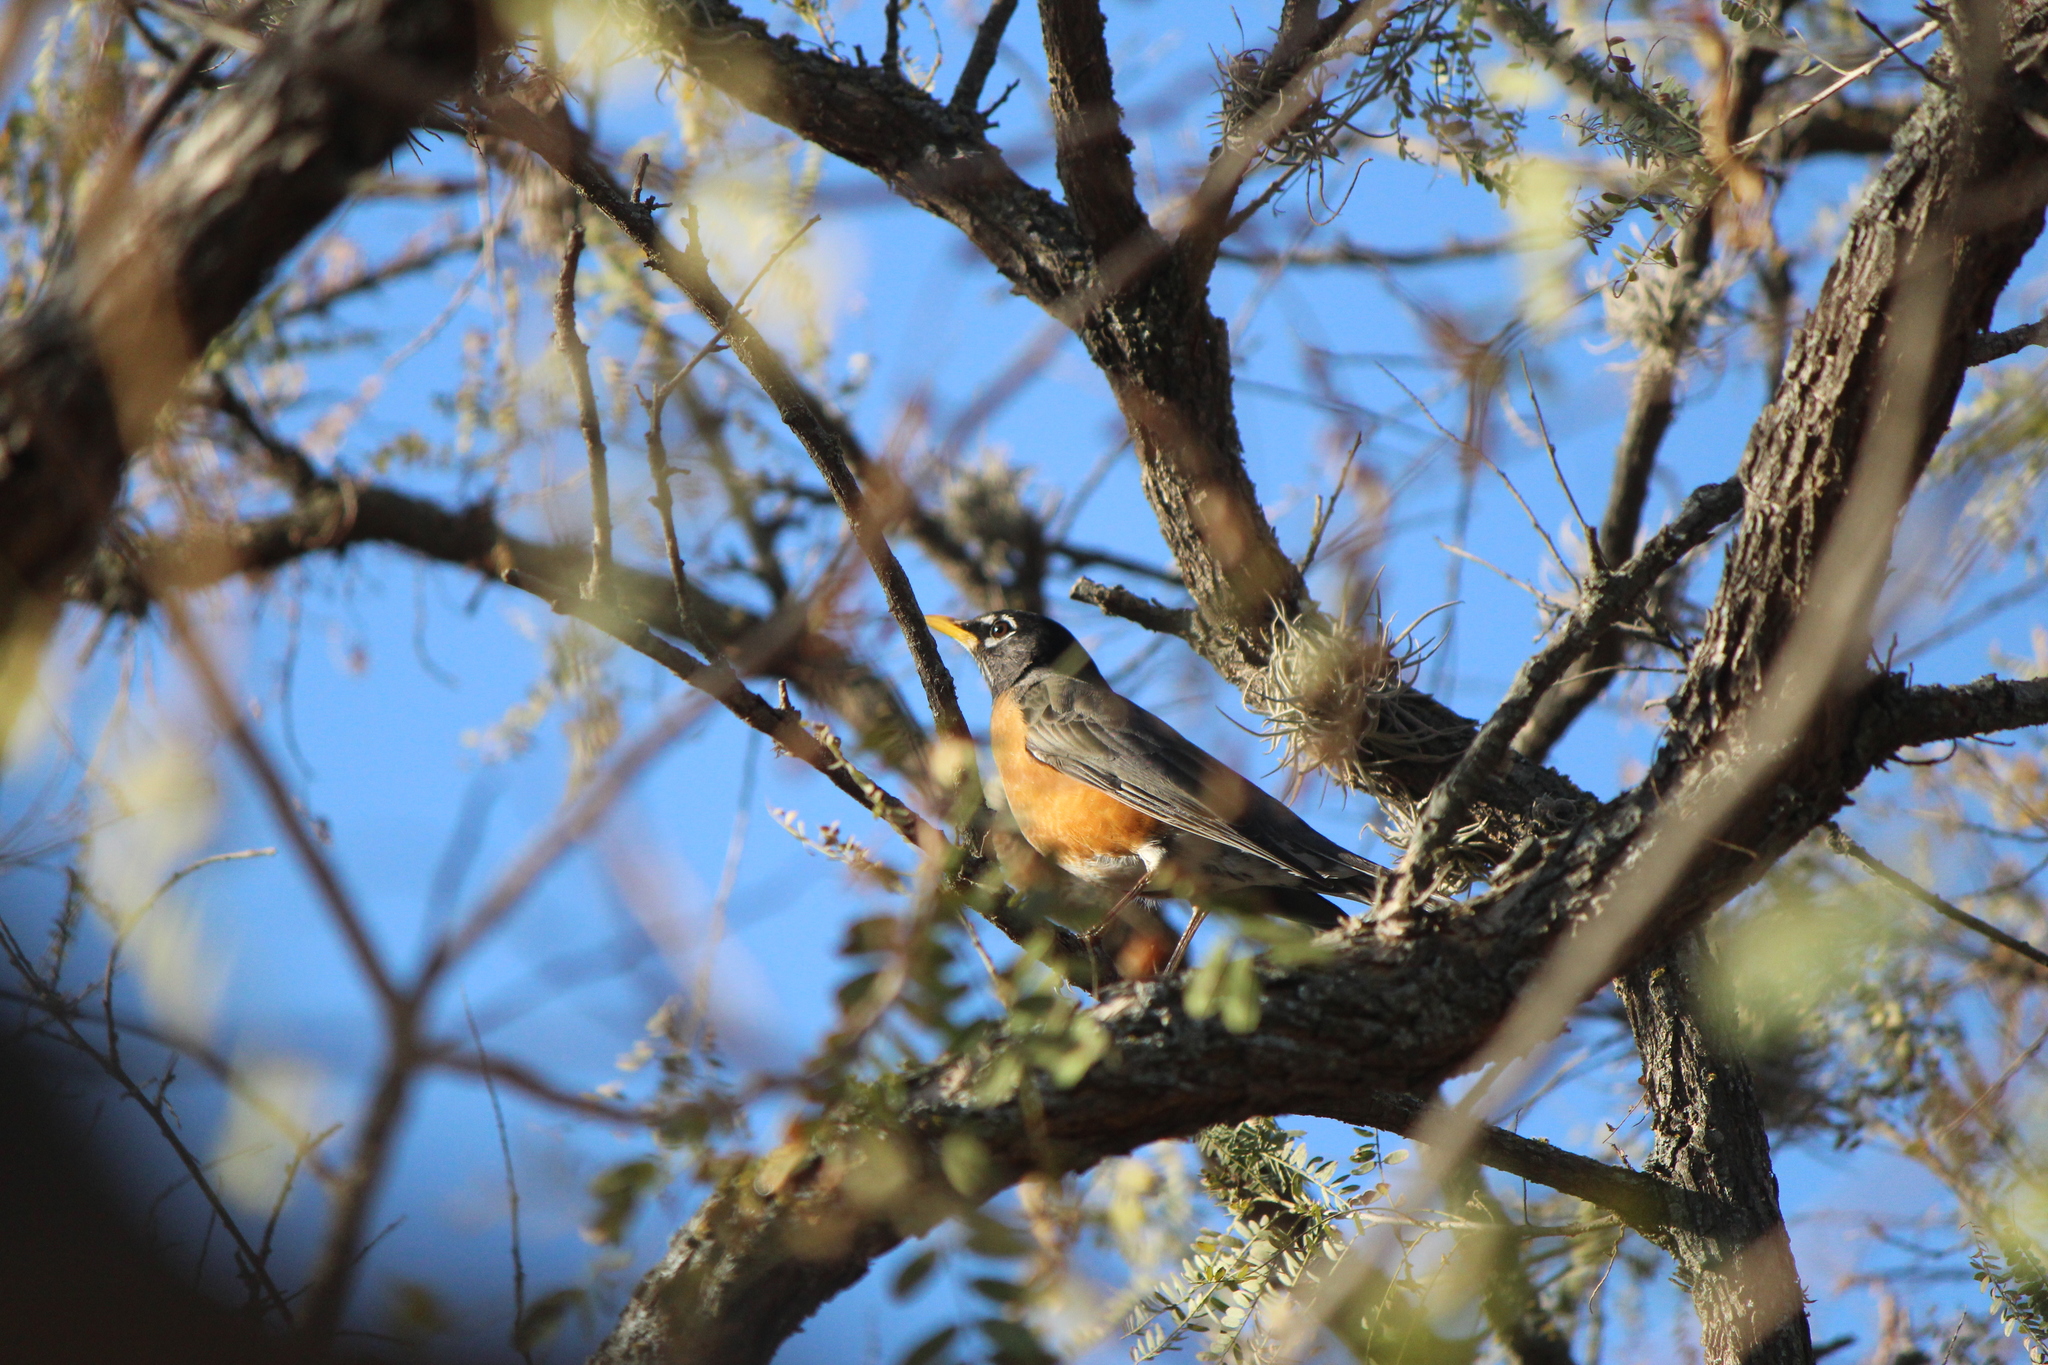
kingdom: Animalia
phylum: Chordata
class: Aves
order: Passeriformes
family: Turdidae
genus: Turdus
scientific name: Turdus migratorius
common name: American robin
